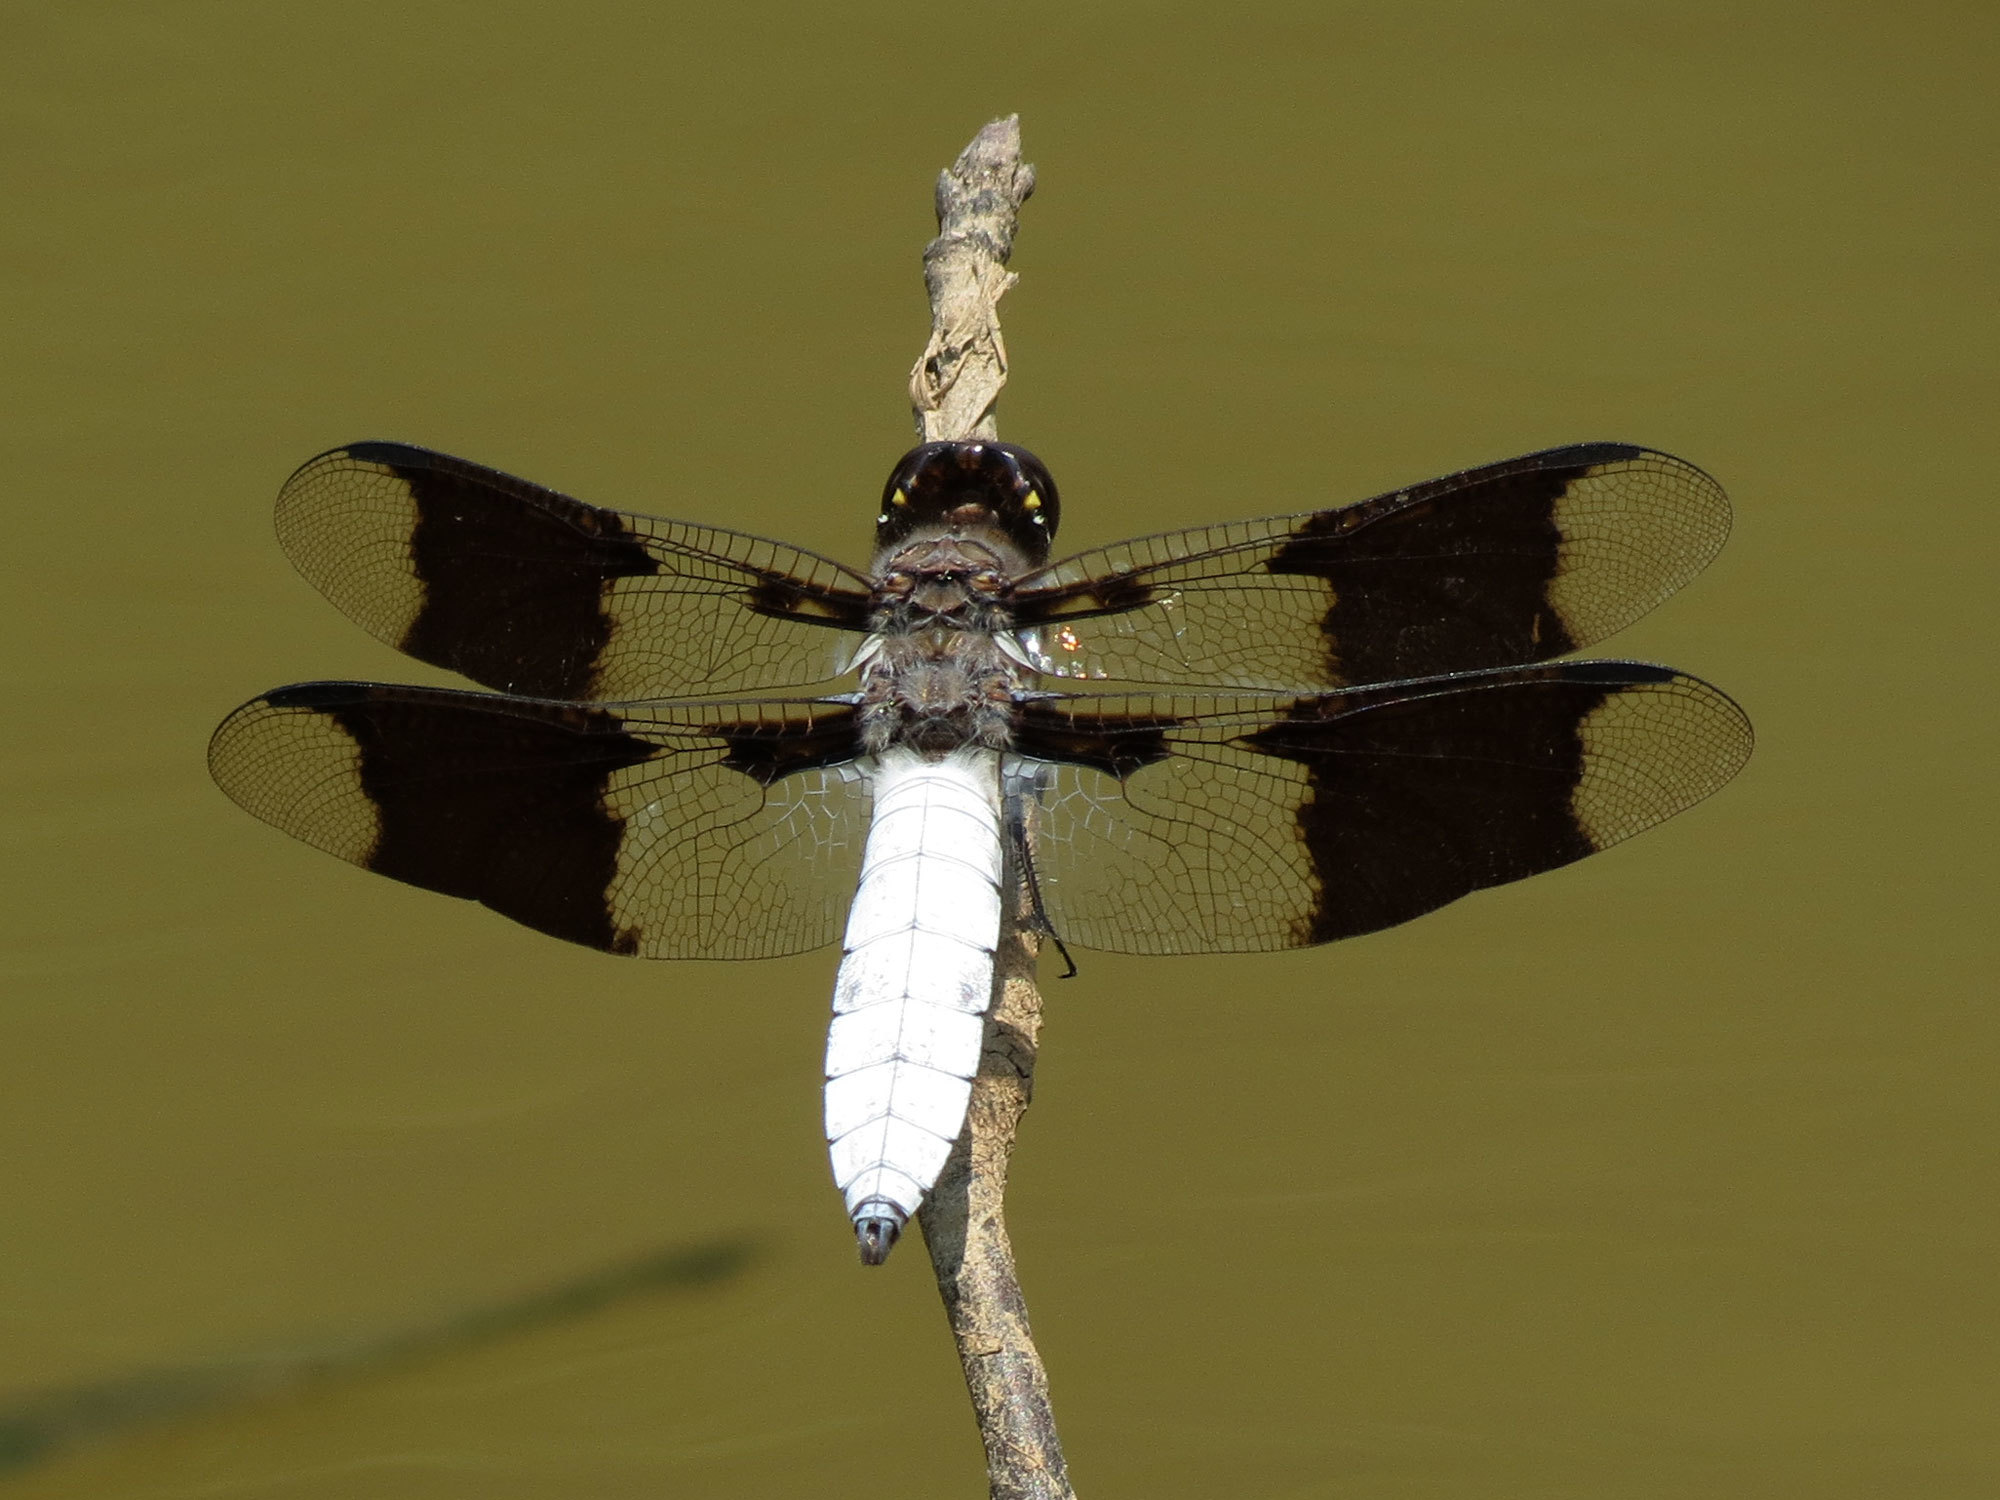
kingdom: Animalia
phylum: Arthropoda
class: Insecta
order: Odonata
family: Libellulidae
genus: Plathemis
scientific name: Plathemis lydia
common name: Common whitetail
